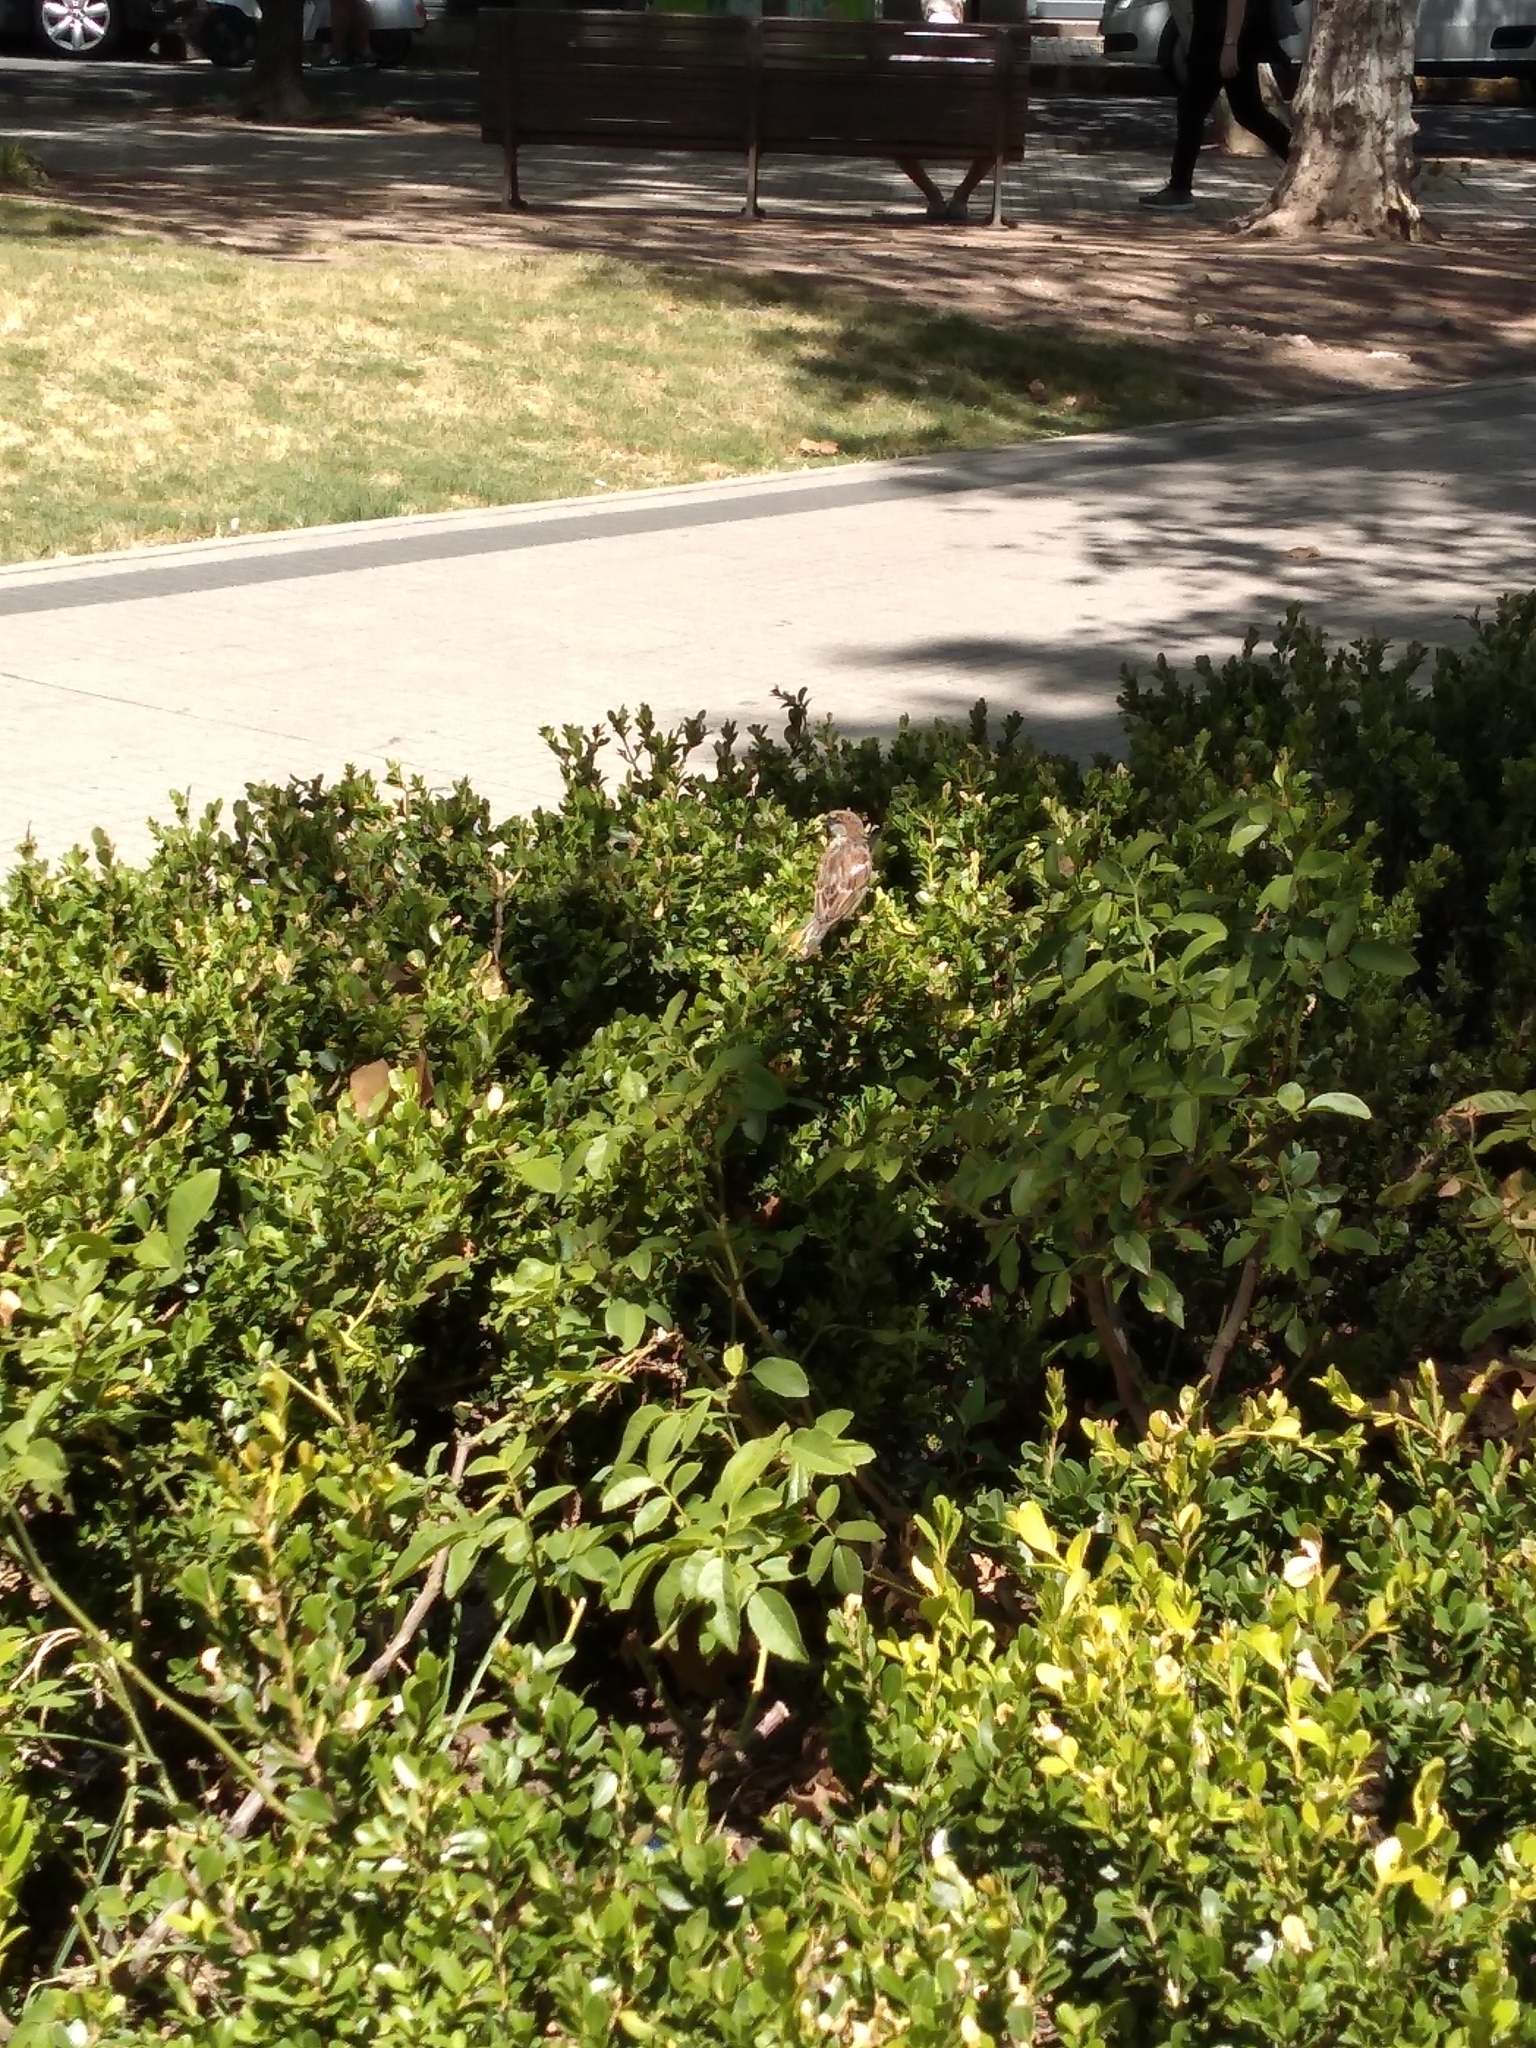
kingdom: Animalia
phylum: Chordata
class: Aves
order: Passeriformes
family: Passeridae
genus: Passer
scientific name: Passer domesticus
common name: House sparrow
